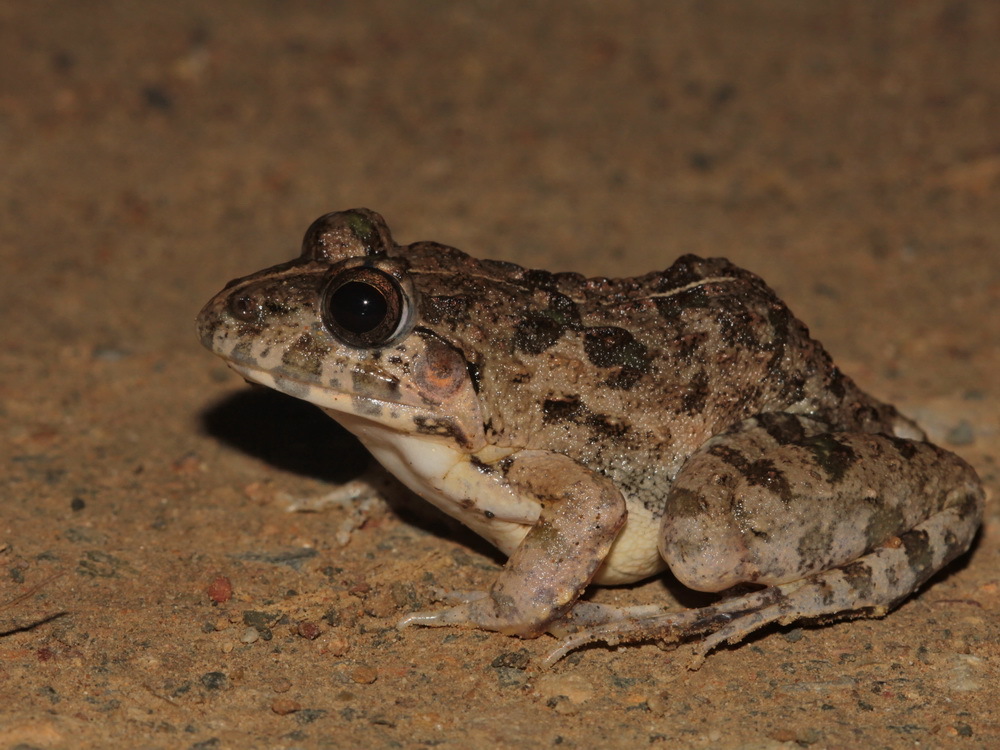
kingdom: Animalia
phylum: Chordata
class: Amphibia
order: Anura
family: Dicroglossidae
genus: Fejervarya
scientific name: Fejervarya limnocharis
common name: Asian grass frog/common pond frog/field frog/grass frog/indian rice frog
